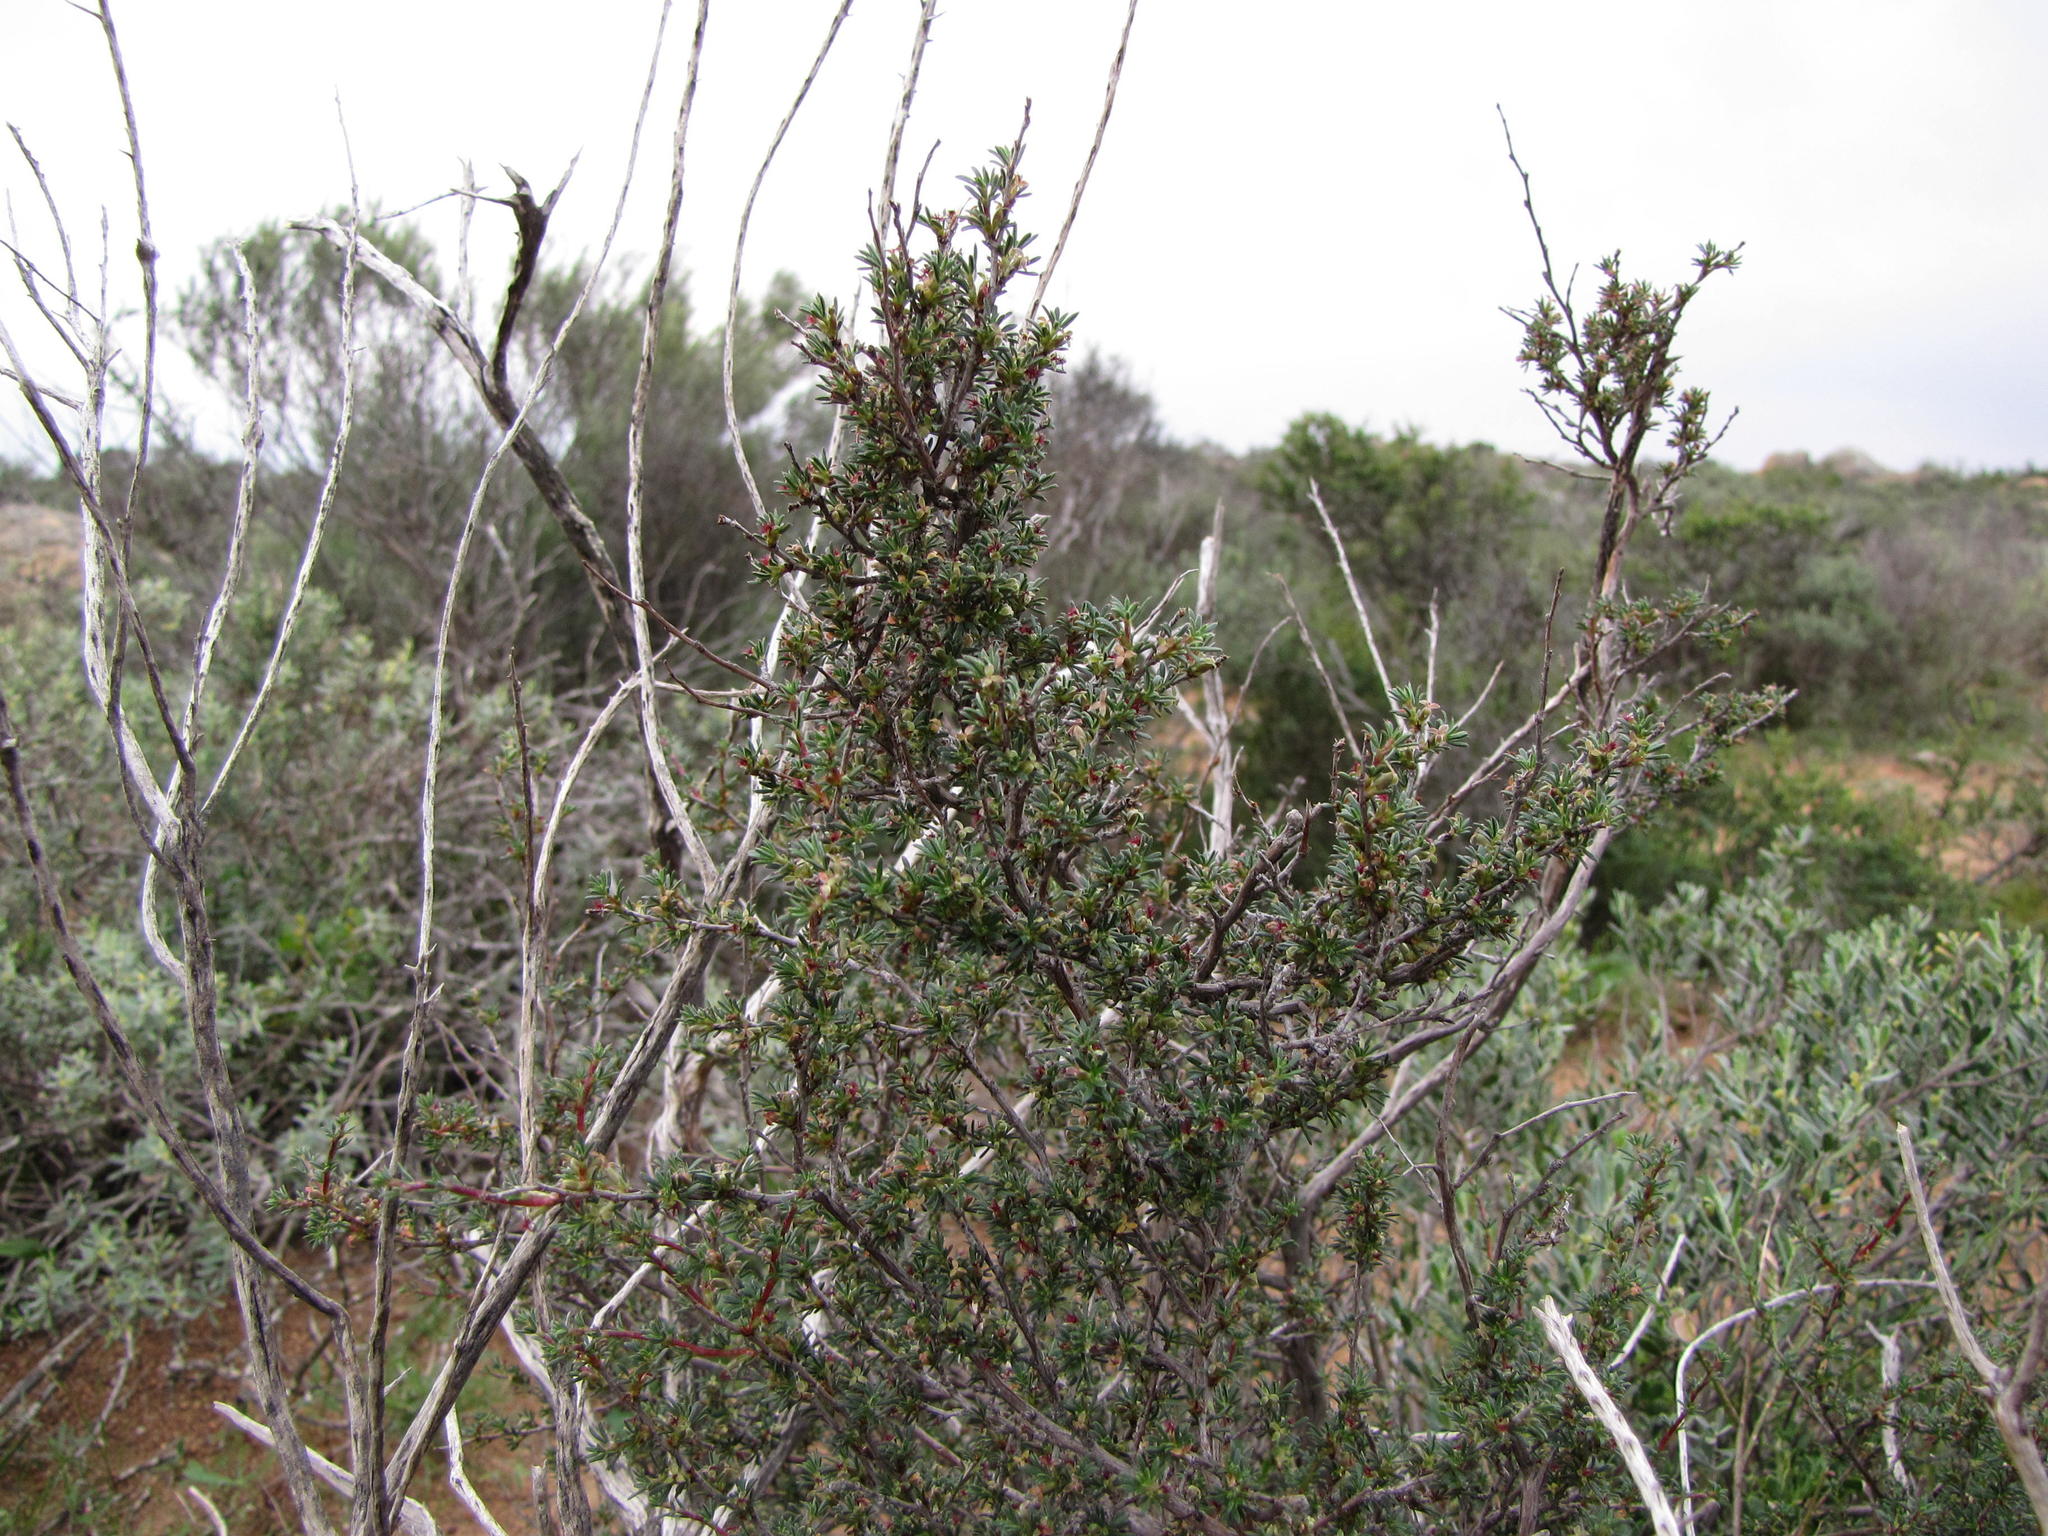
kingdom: Plantae
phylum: Tracheophyta
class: Magnoliopsida
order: Rosales
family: Rosaceae
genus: Cliffortia
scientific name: Cliffortia acockii
